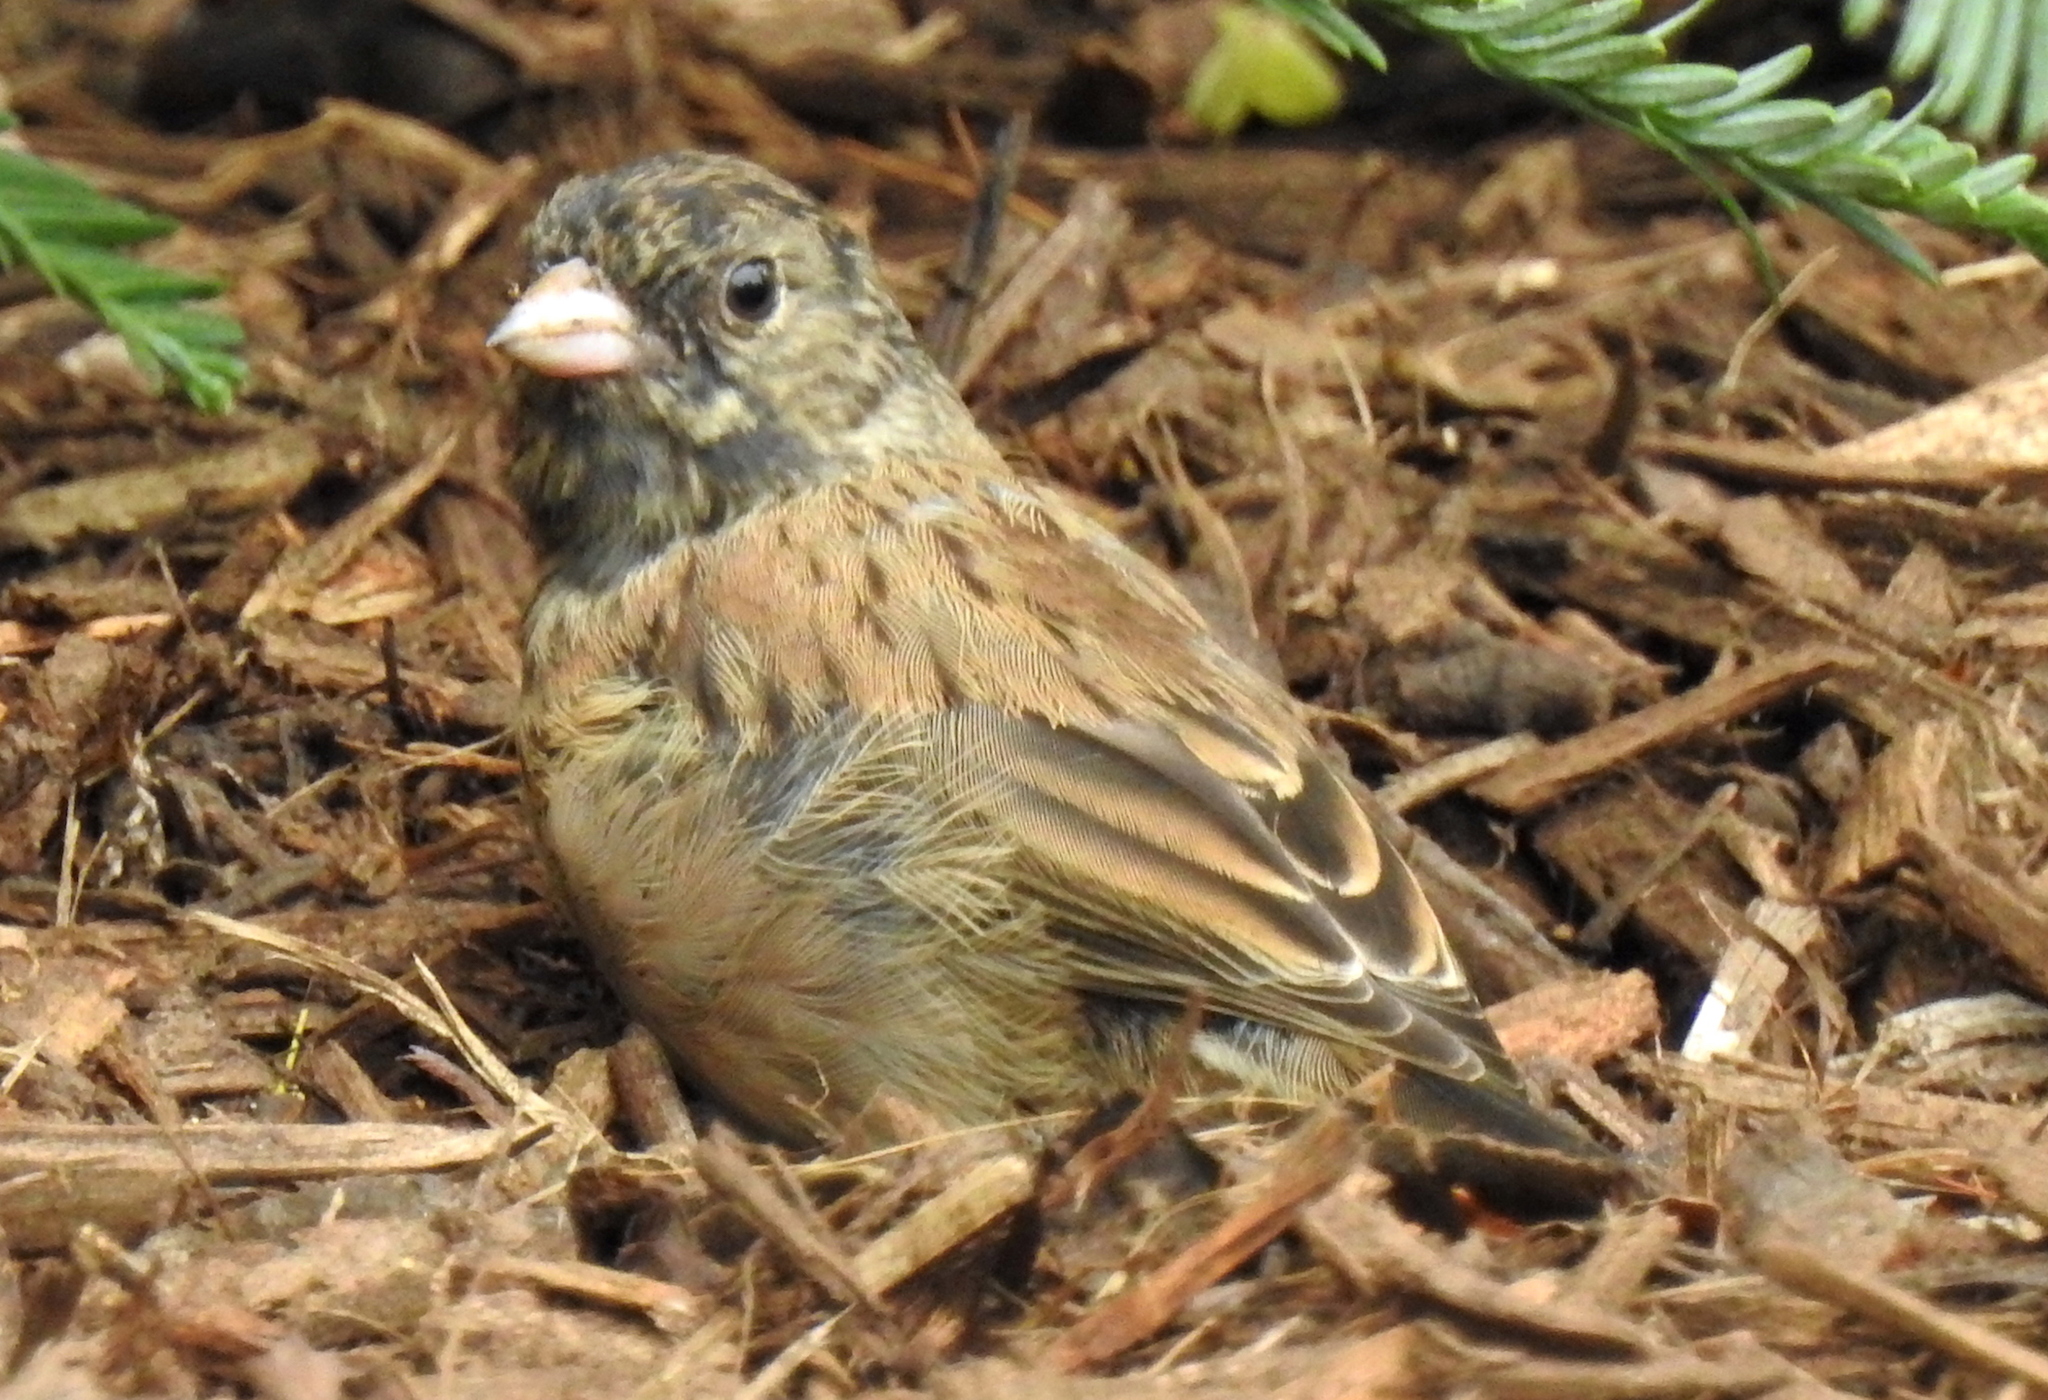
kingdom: Animalia
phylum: Chordata
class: Aves
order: Passeriformes
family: Passerellidae
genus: Junco
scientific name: Junco hyemalis
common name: Dark-eyed junco
